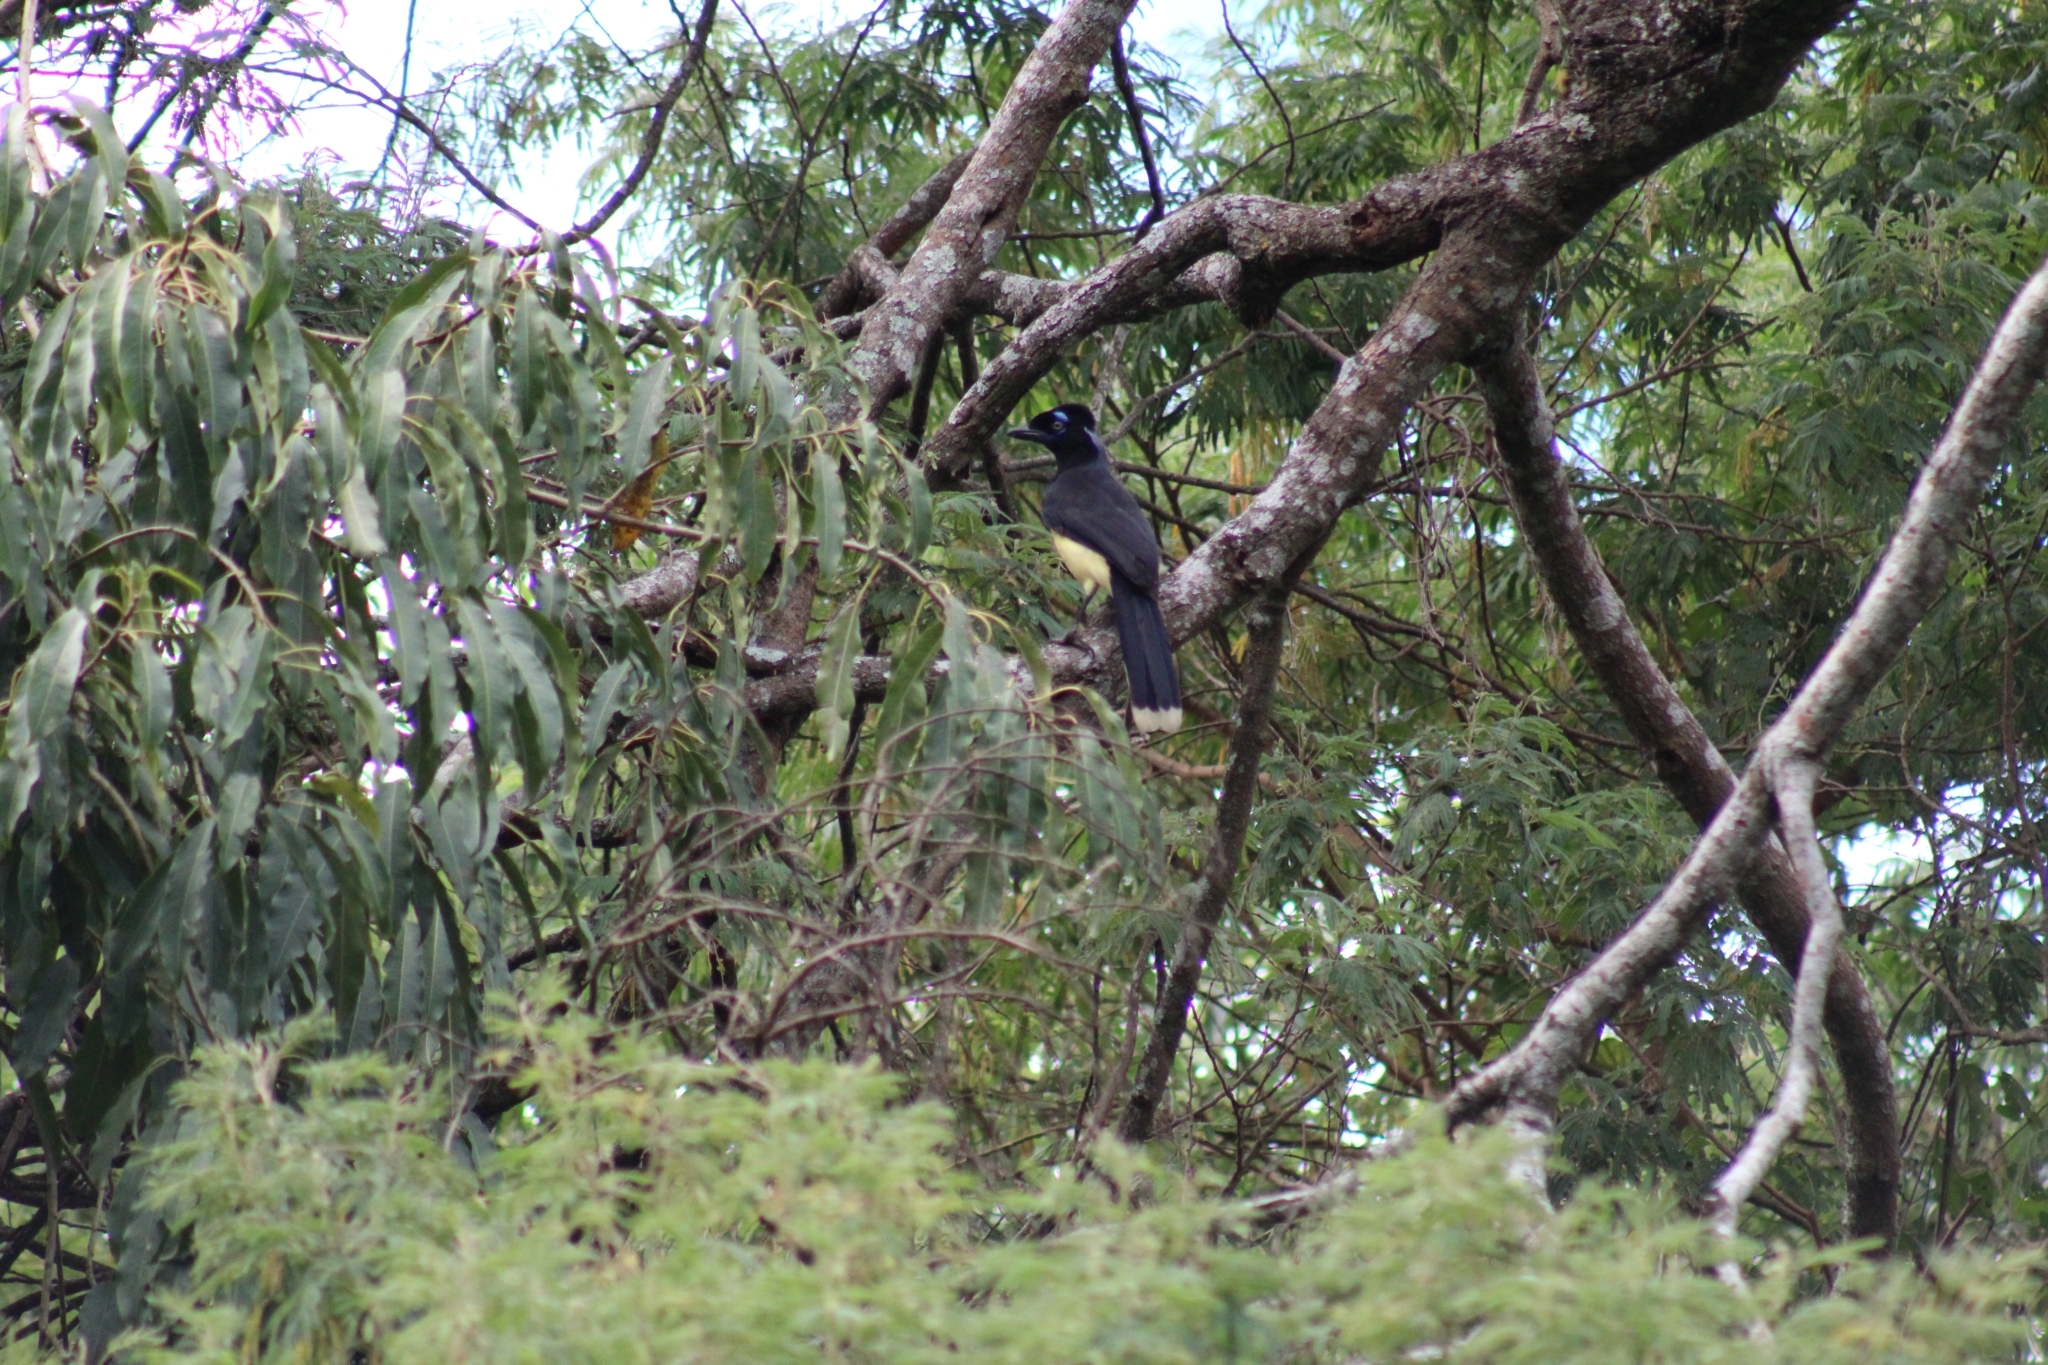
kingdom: Animalia
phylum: Chordata
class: Aves
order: Passeriformes
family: Corvidae
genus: Cyanocorax
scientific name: Cyanocorax chrysops
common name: Plush-crested jay
